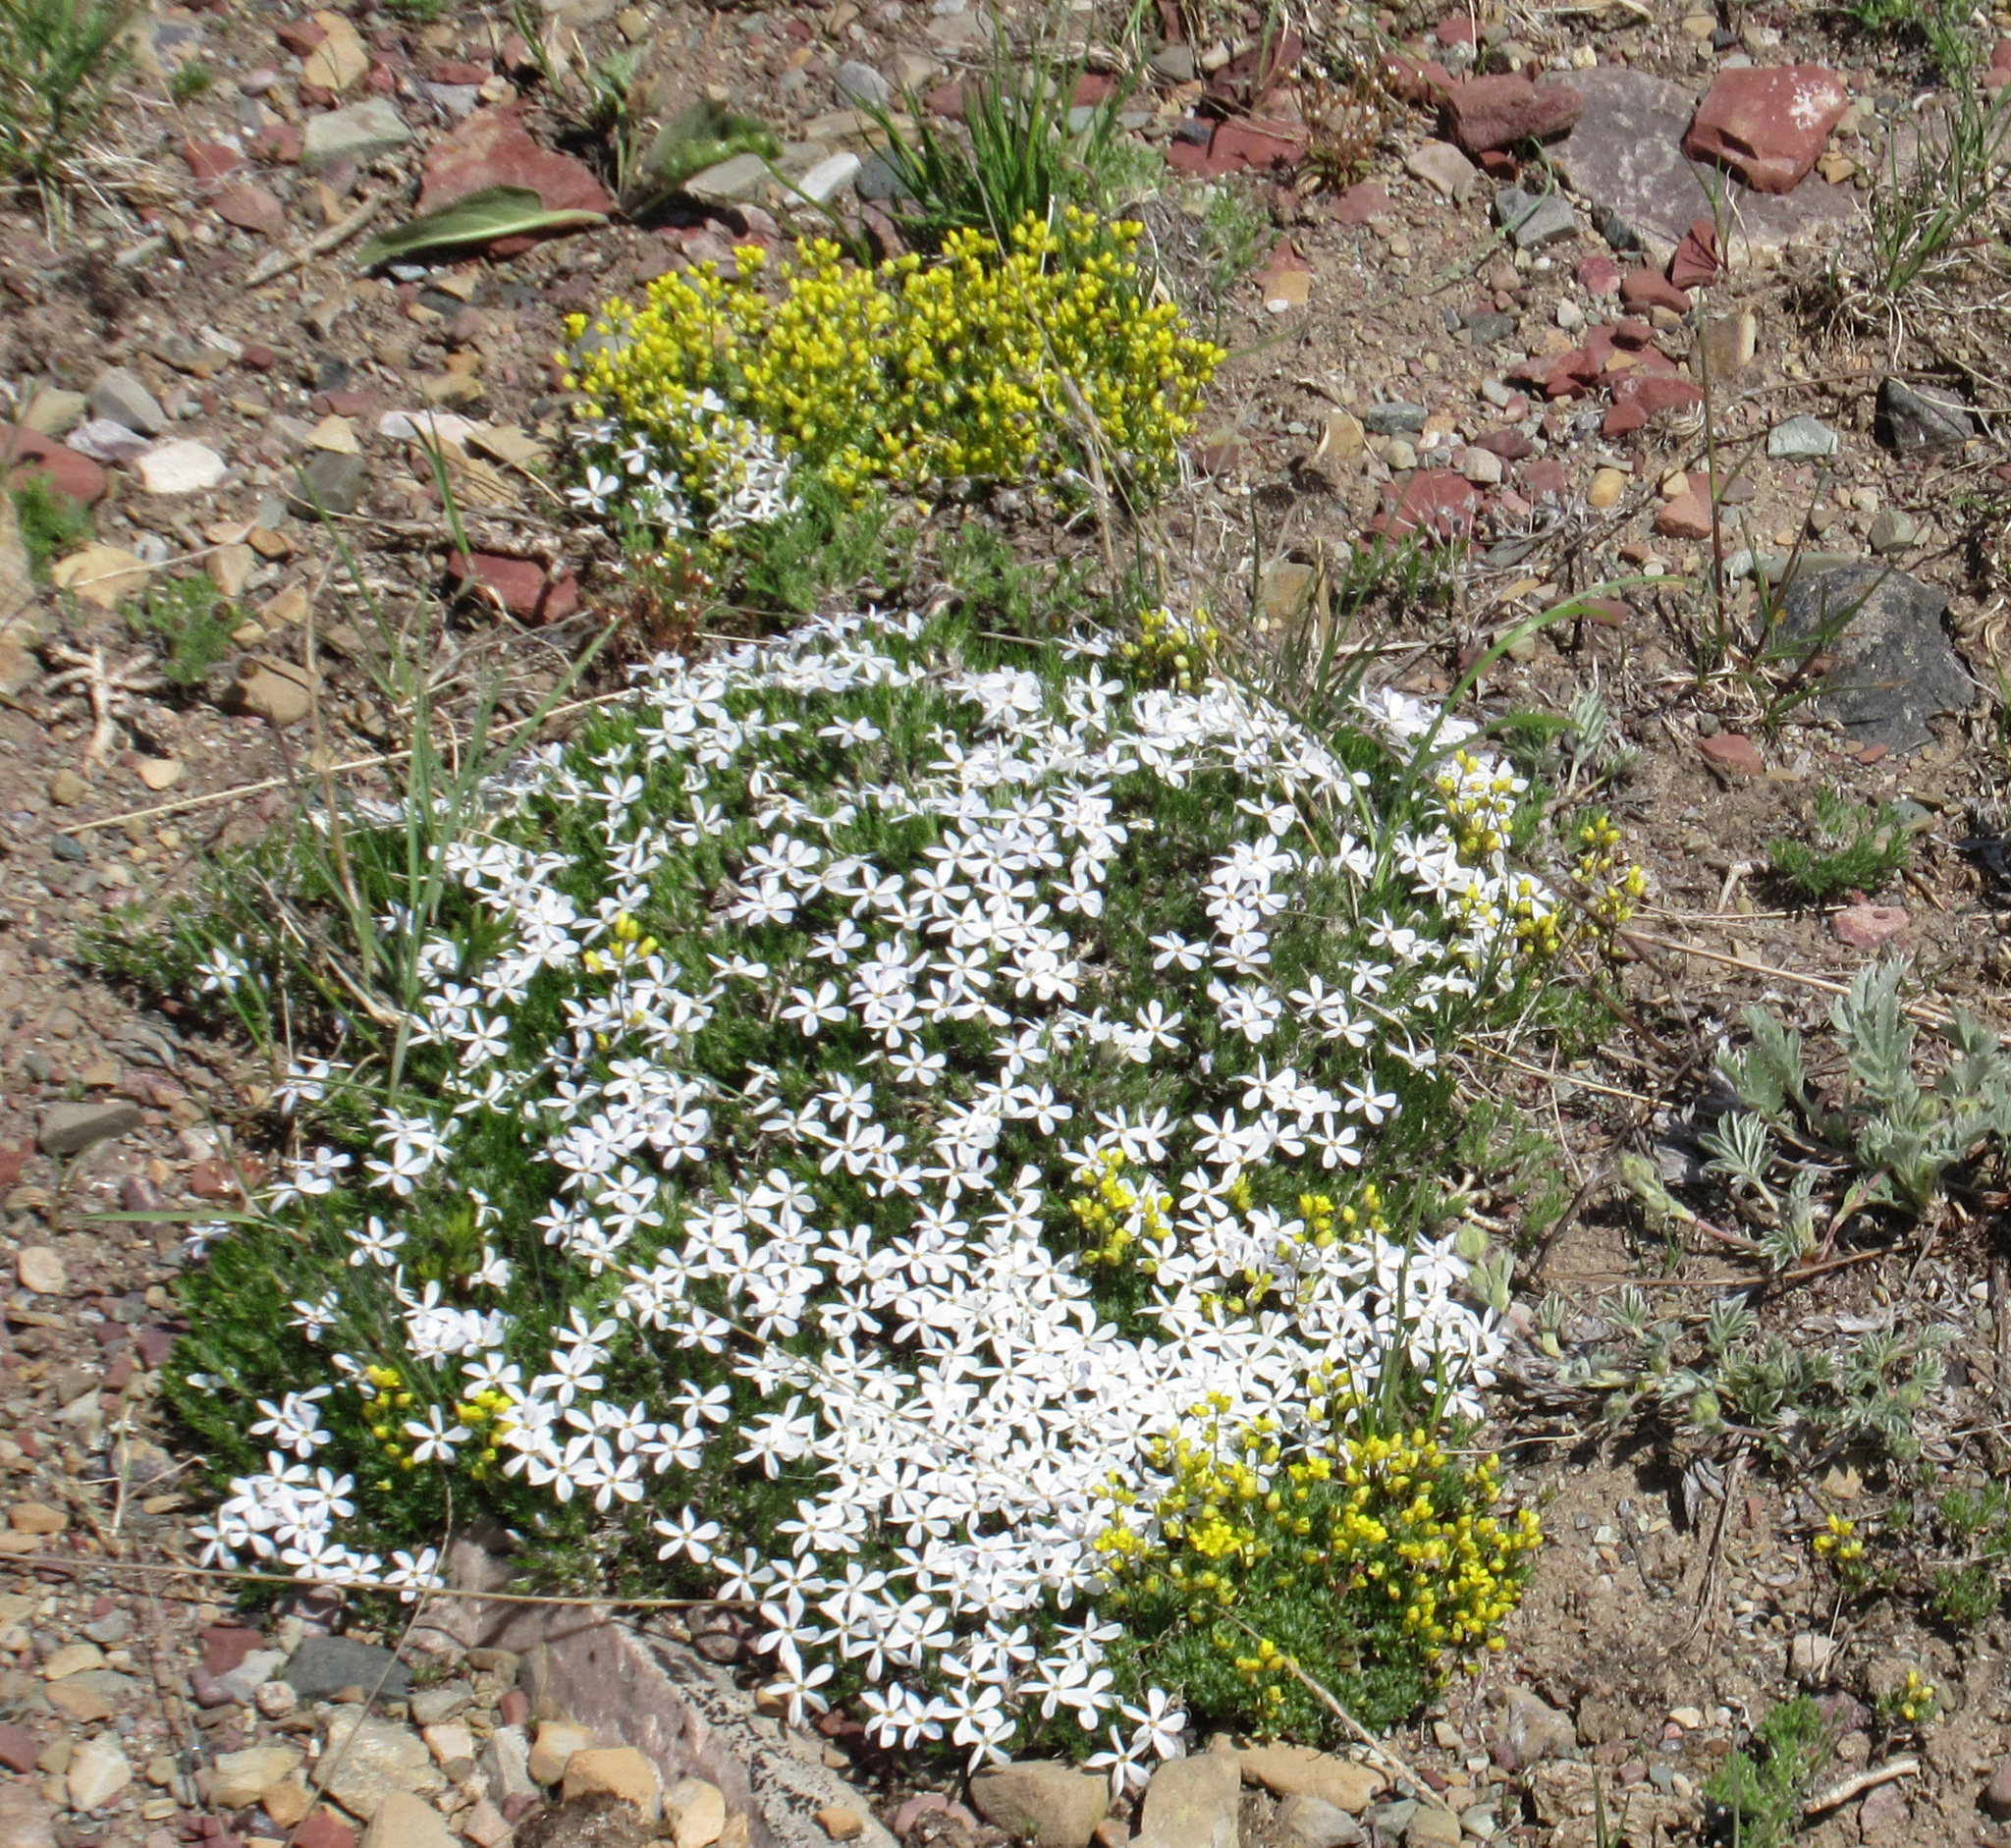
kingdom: Plantae
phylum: Tracheophyta
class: Magnoliopsida
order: Ericales
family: Polemoniaceae
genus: Phlox
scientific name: Phlox hoodii
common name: Moss phlox
